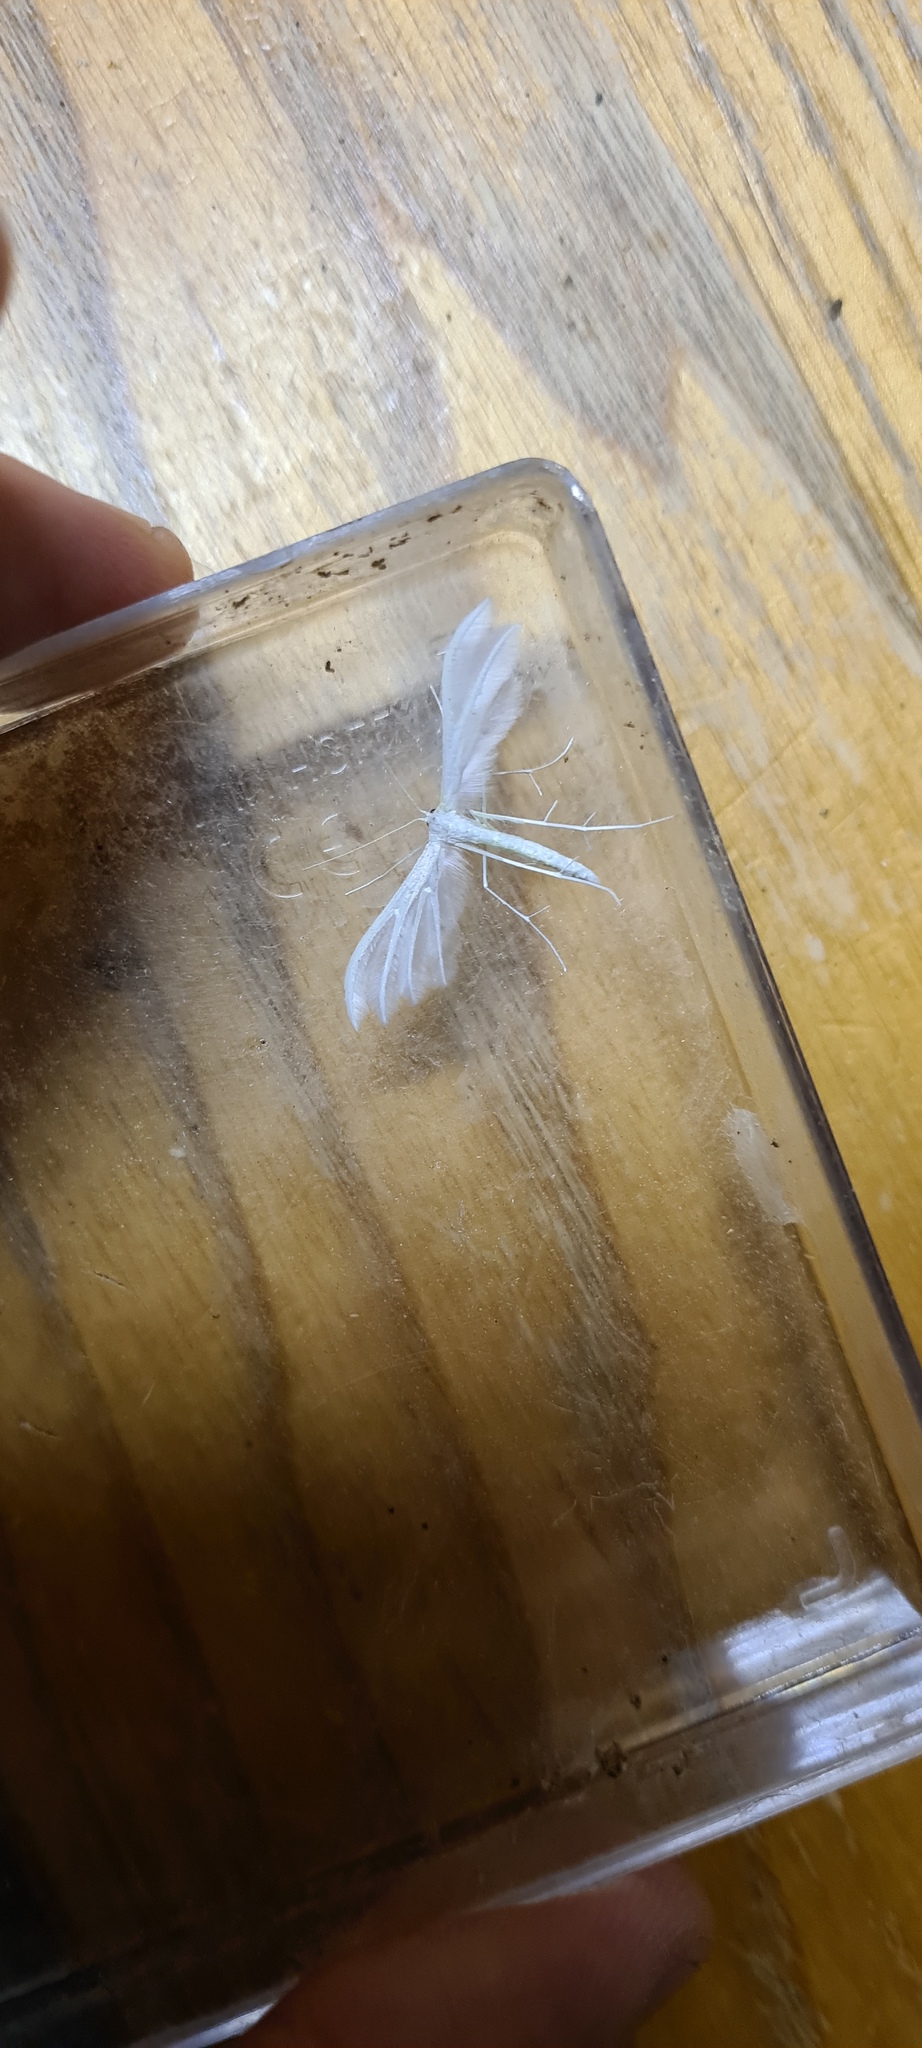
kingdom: Animalia
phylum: Arthropoda
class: Insecta
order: Lepidoptera
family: Pterophoridae
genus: Pterophorus
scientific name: Pterophorus pentadactyla
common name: White plume moth
